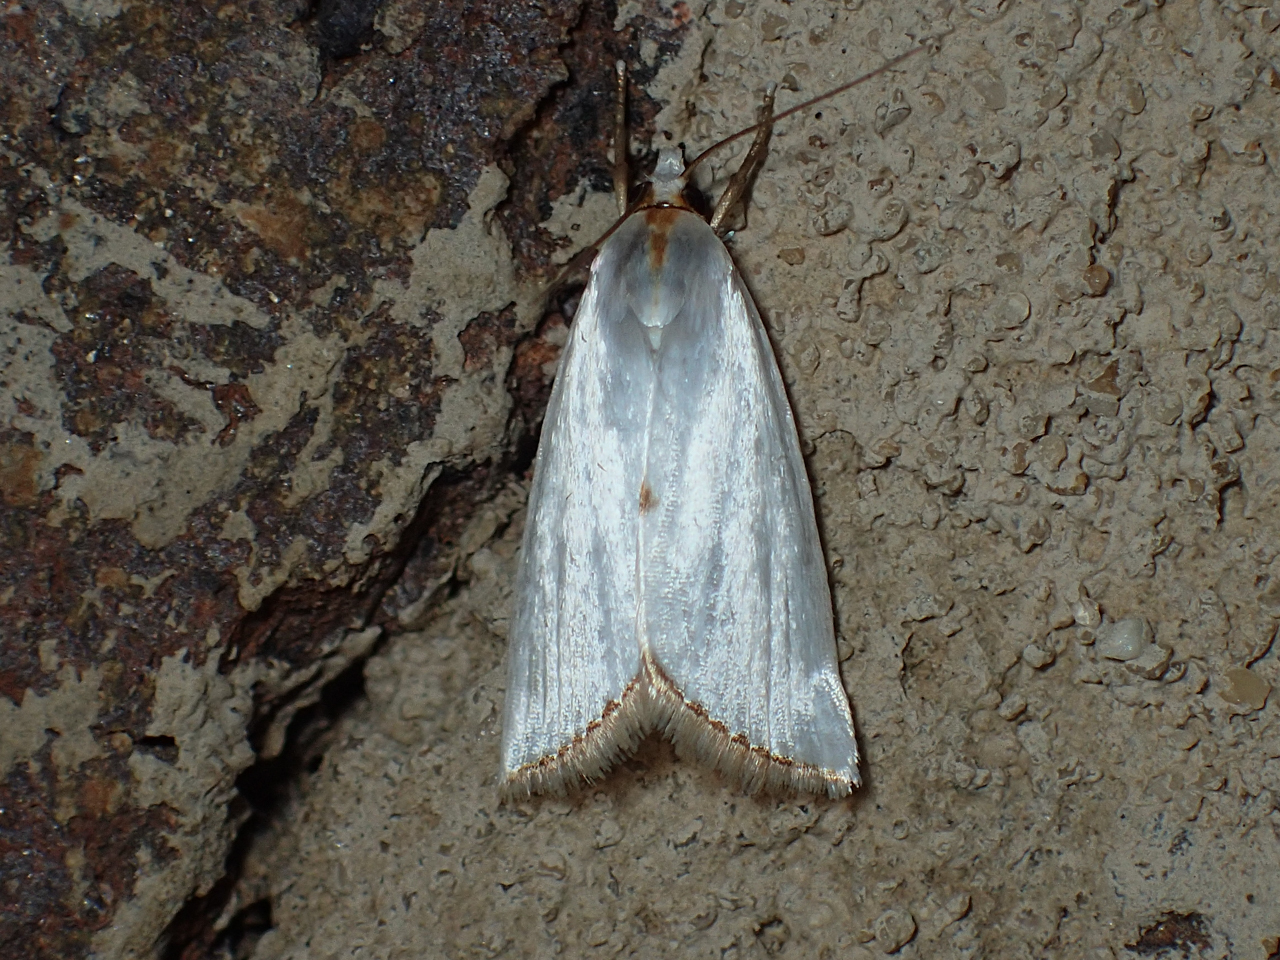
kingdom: Animalia
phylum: Arthropoda
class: Insecta
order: Lepidoptera
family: Crambidae
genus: Argyria
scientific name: Argyria pusillalis
